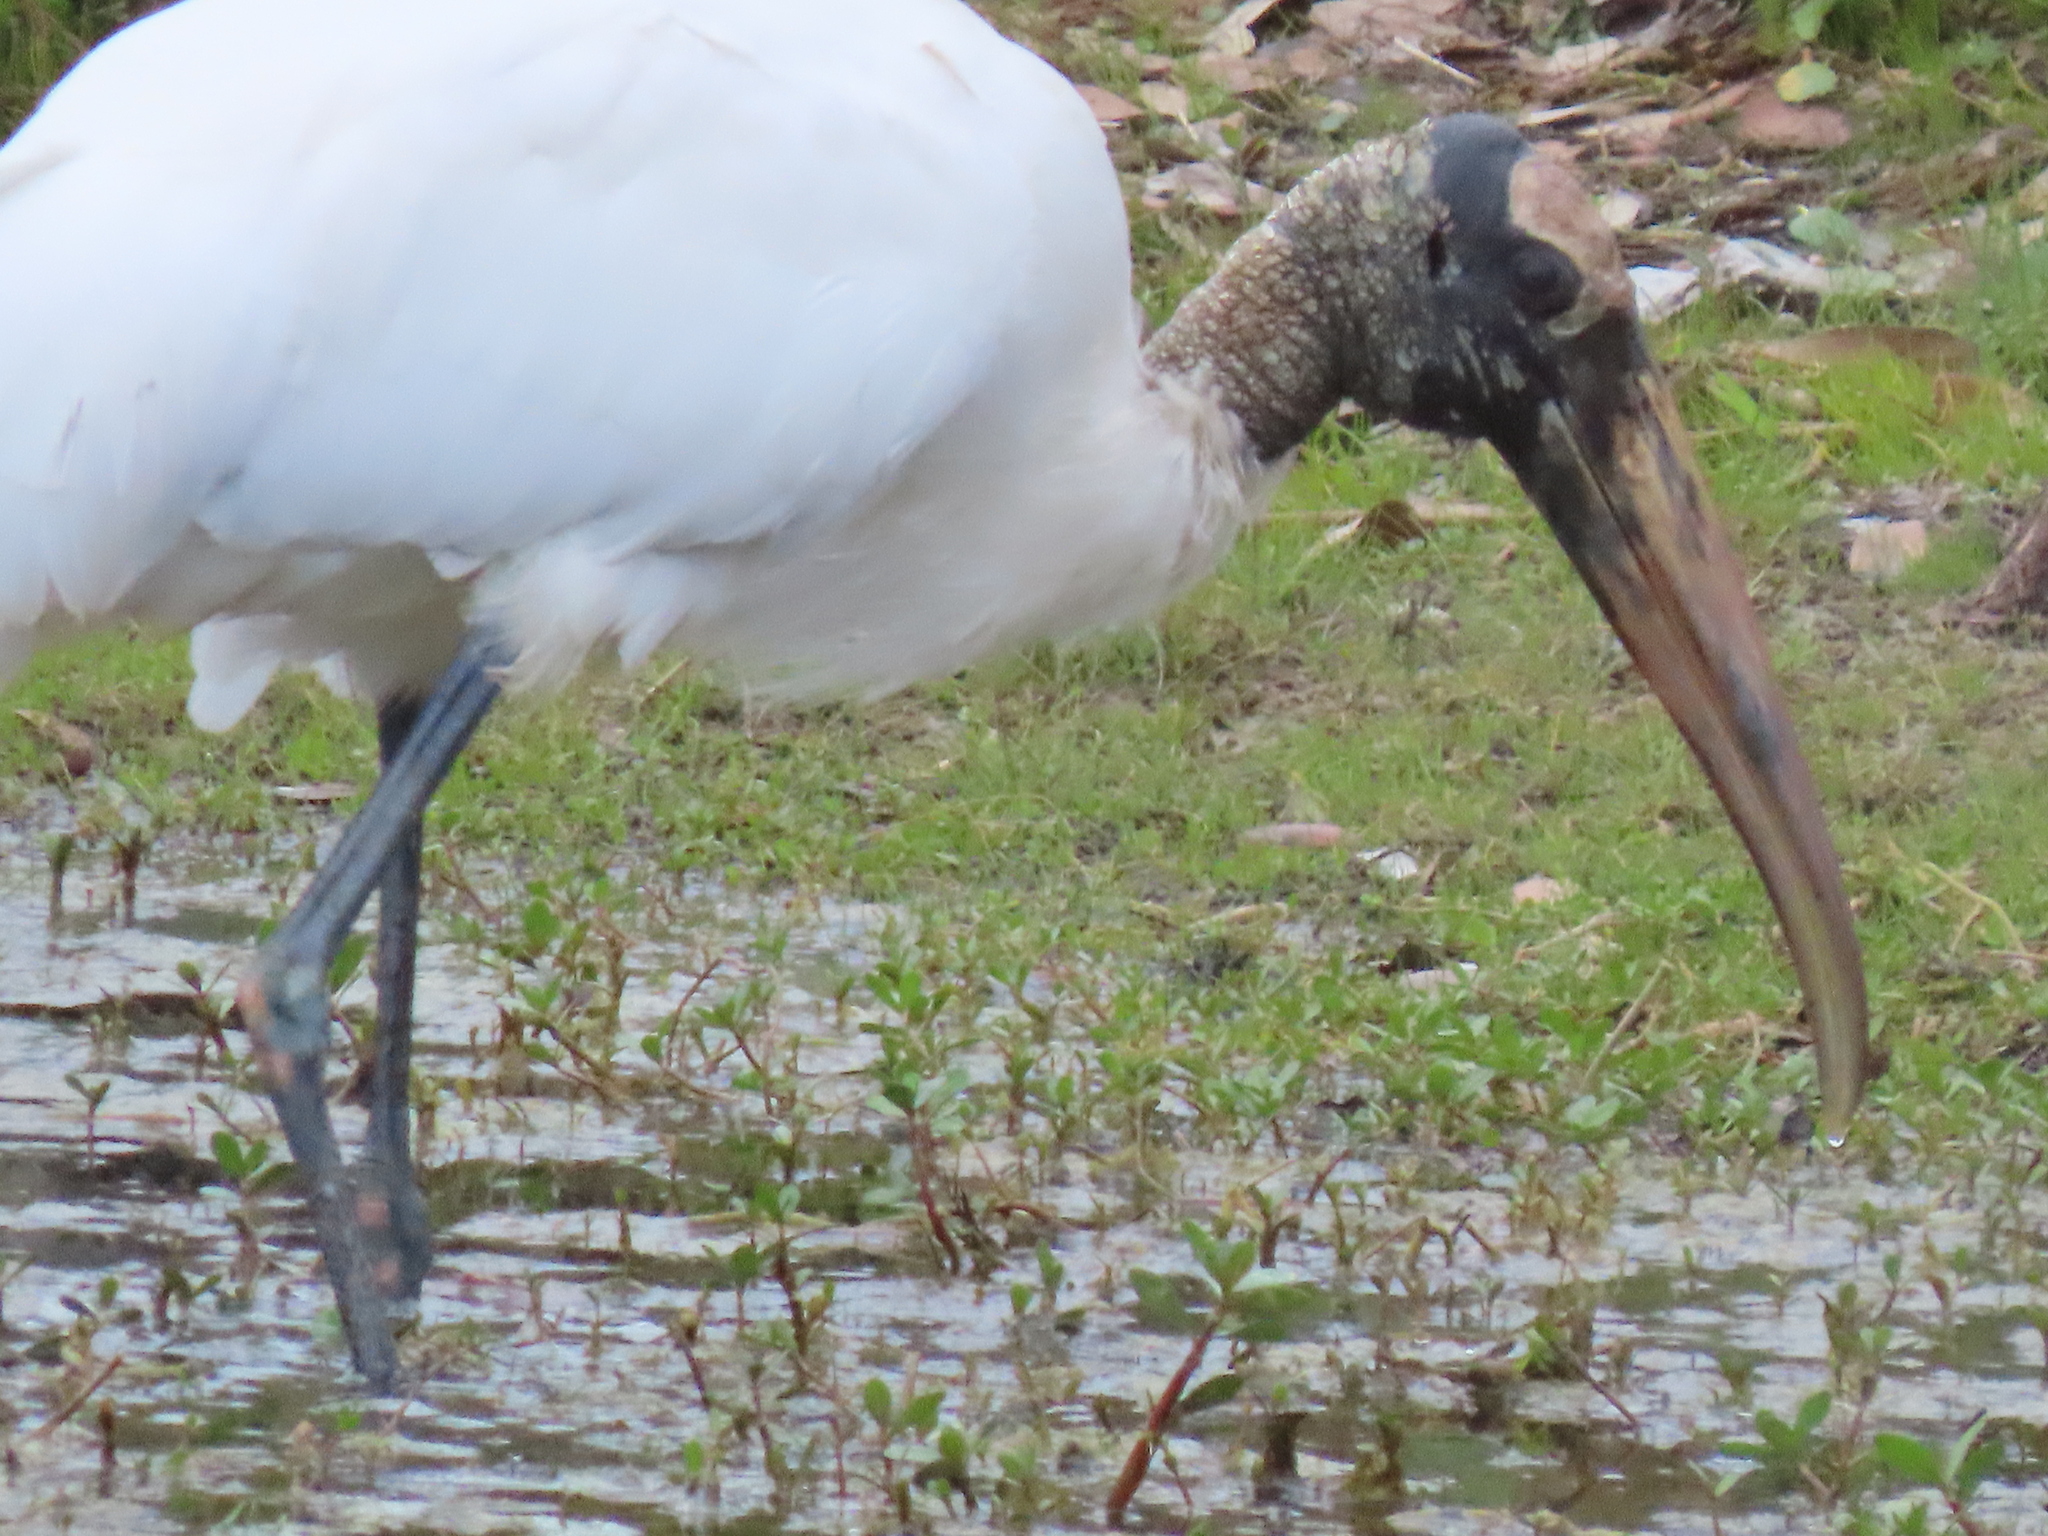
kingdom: Animalia
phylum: Chordata
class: Aves
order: Ciconiiformes
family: Ciconiidae
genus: Mycteria
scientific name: Mycteria americana
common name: Wood stork
